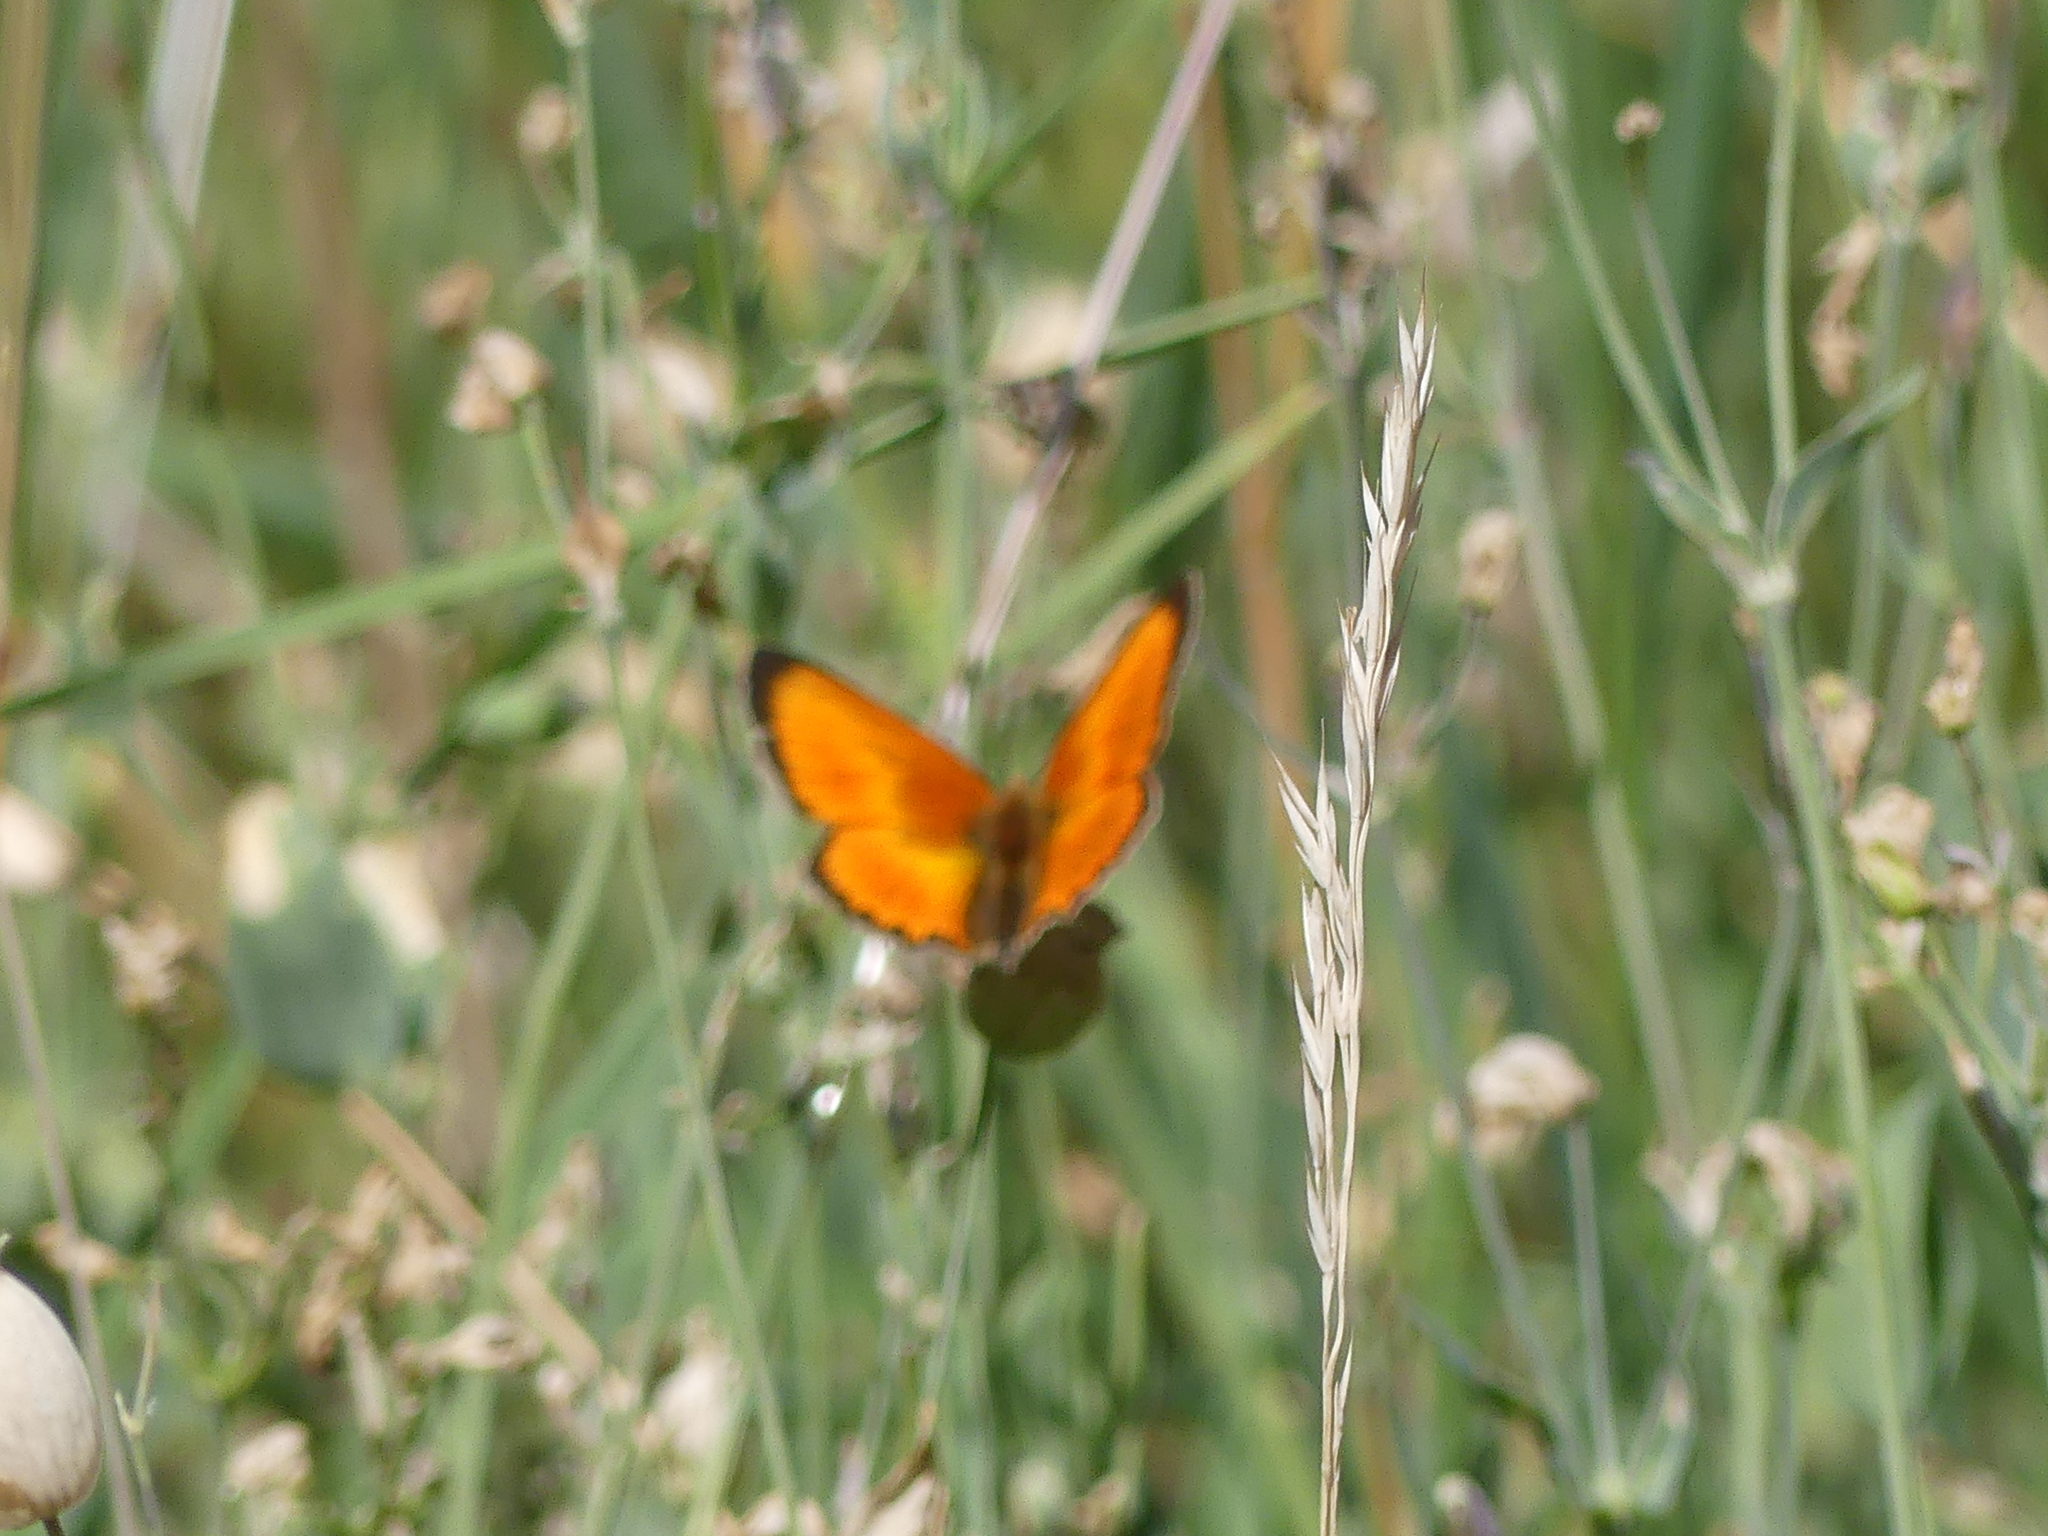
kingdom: Animalia
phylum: Arthropoda
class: Insecta
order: Lepidoptera
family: Lycaenidae
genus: Lycaena
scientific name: Lycaena virgaureae
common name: Scarce copper
